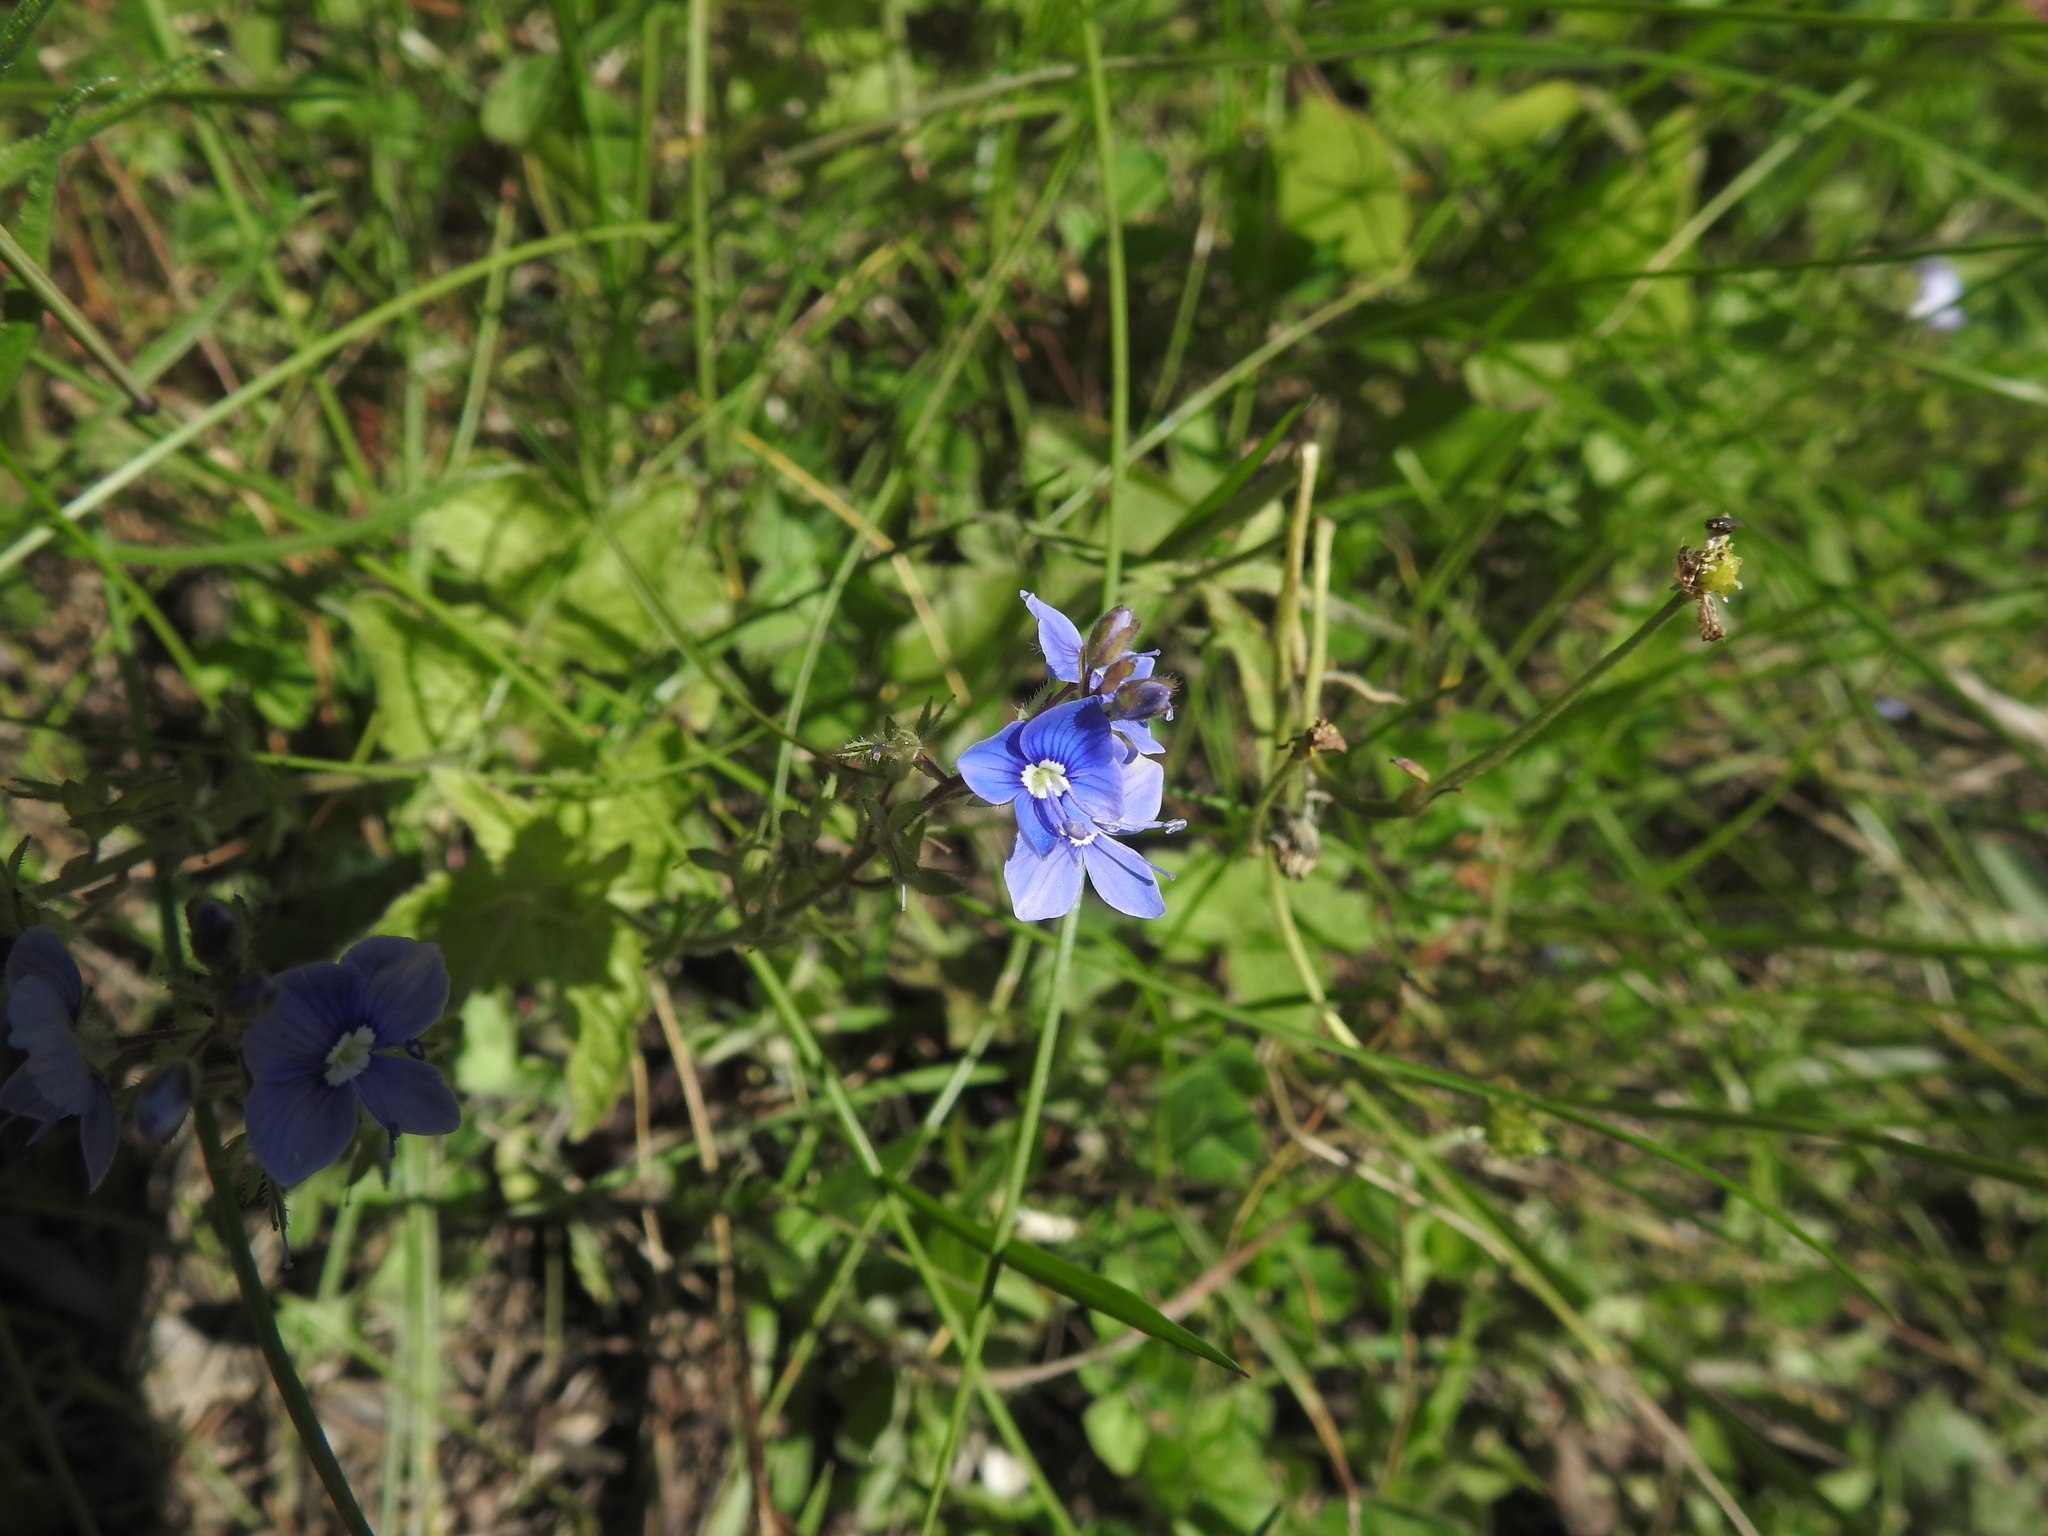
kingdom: Plantae
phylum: Tracheophyta
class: Magnoliopsida
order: Lamiales
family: Plantaginaceae
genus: Veronica
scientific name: Veronica chamaedrys
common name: Germander speedwell
